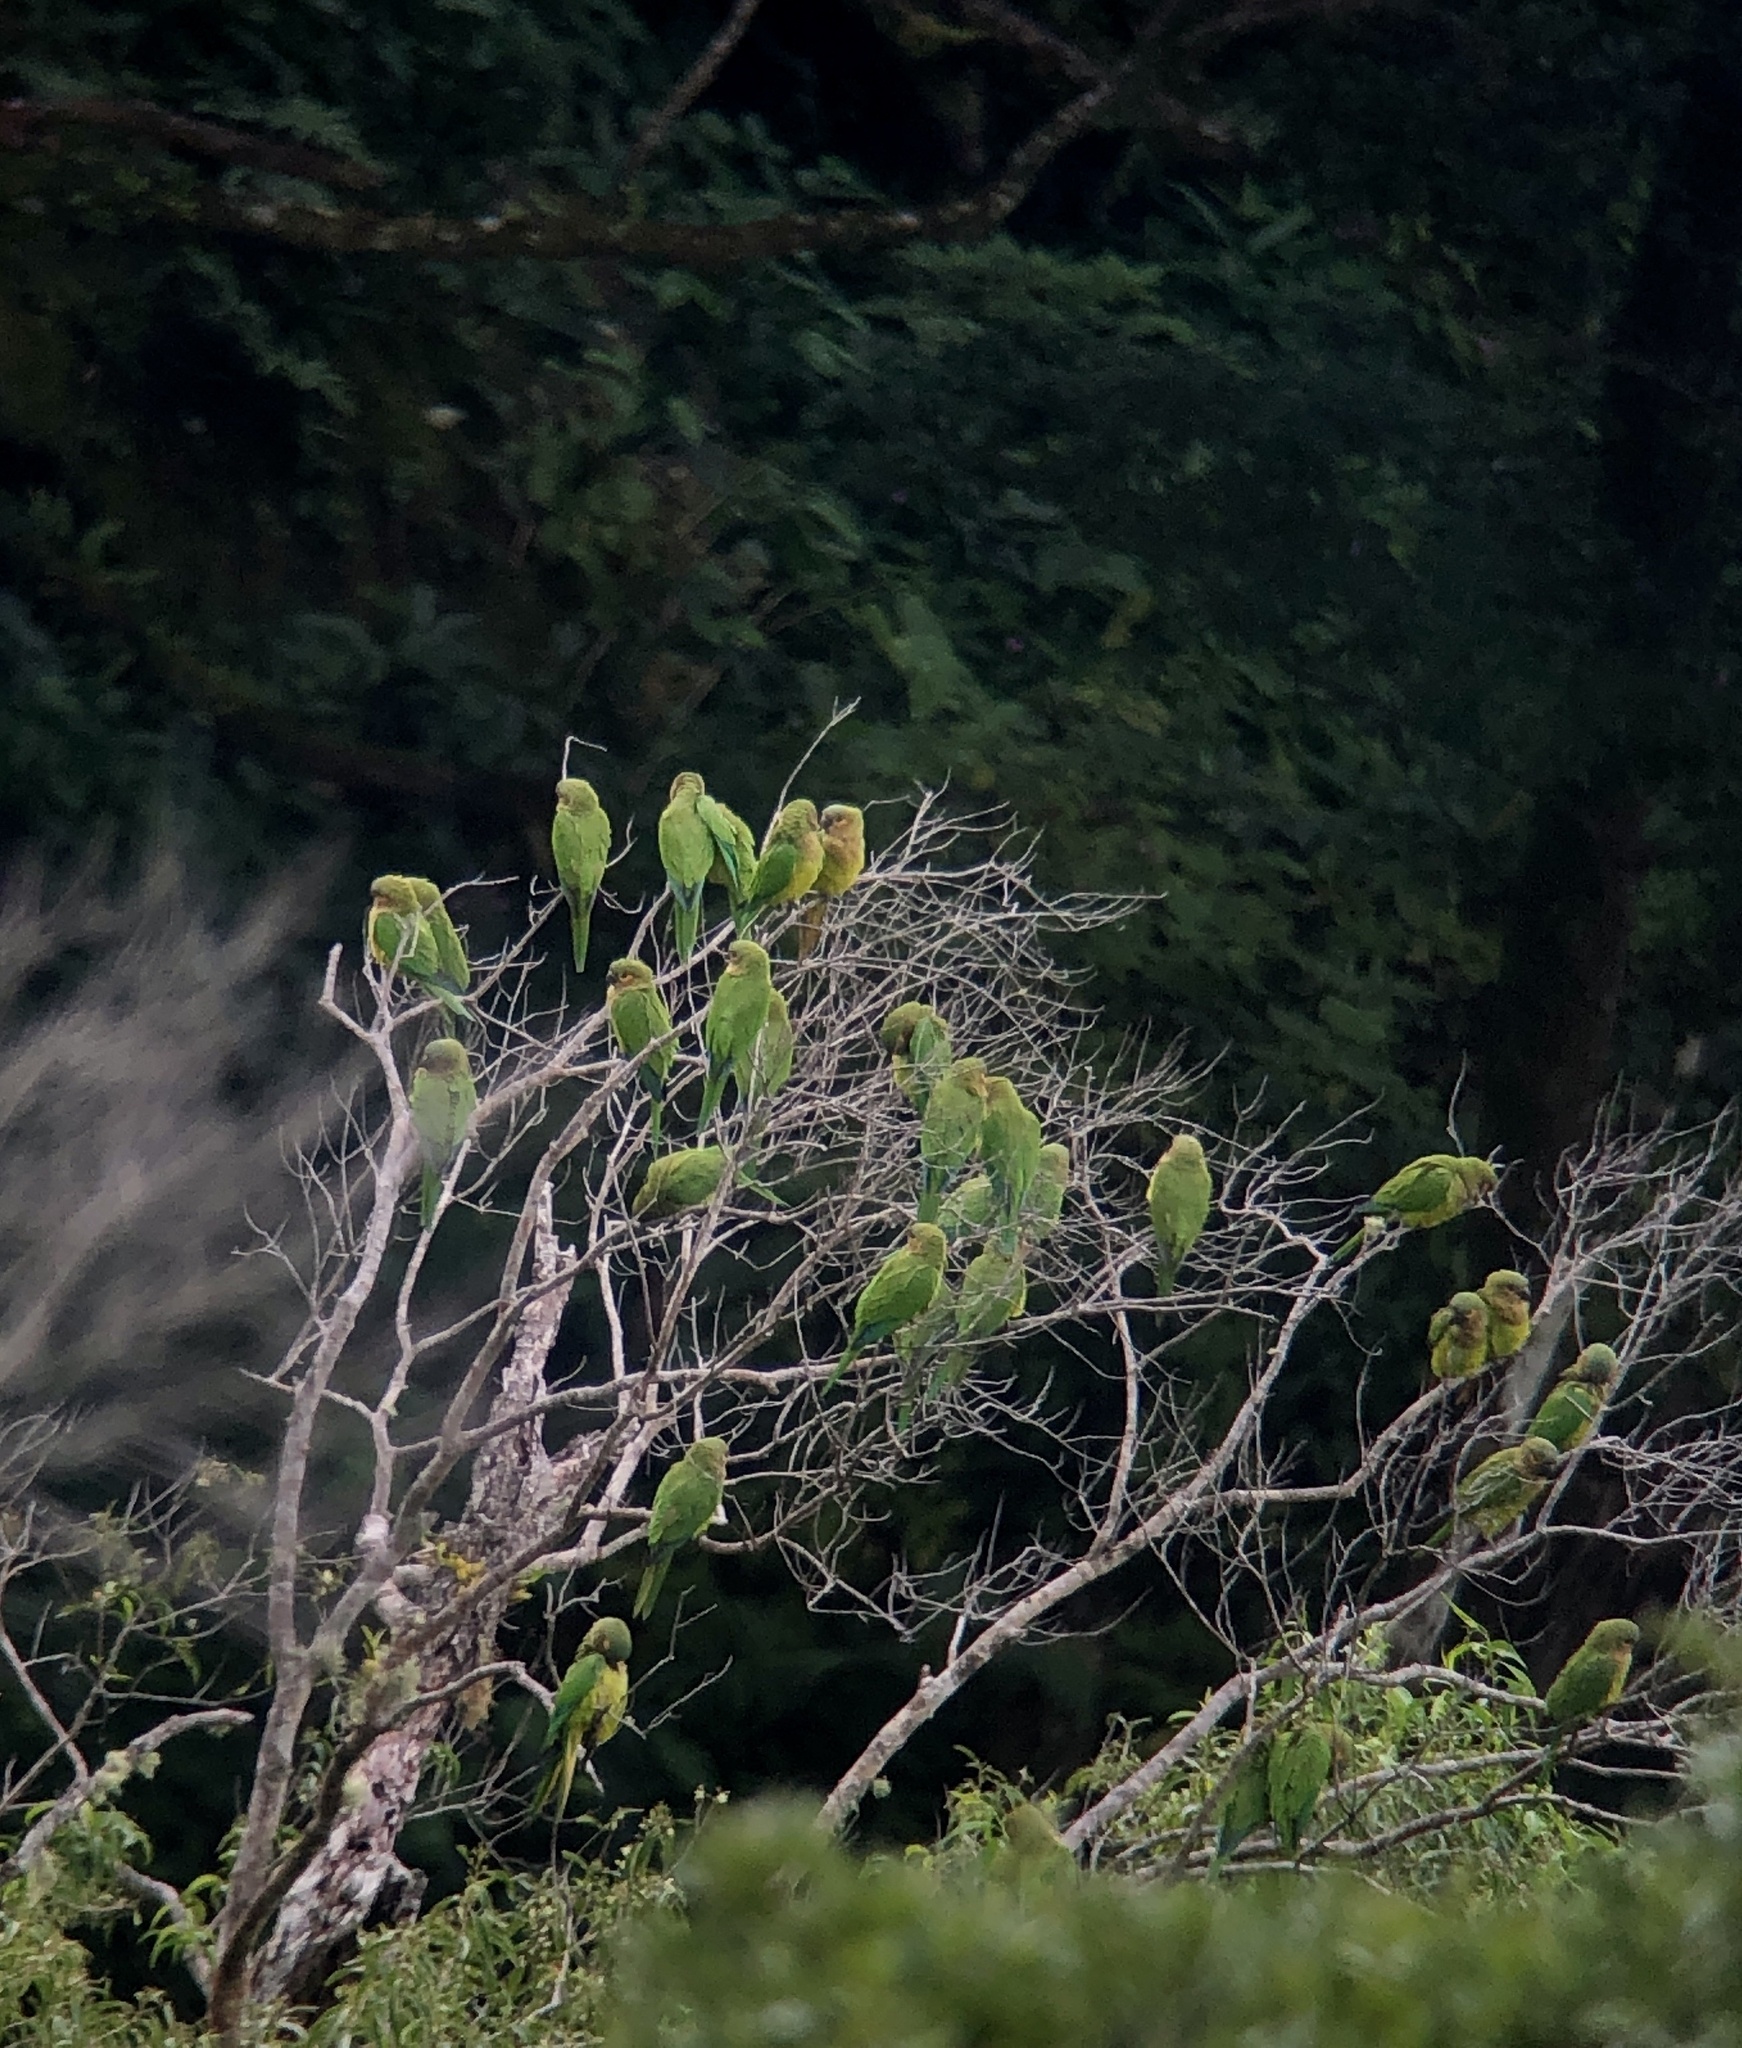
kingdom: Animalia
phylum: Chordata
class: Aves
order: Psittaciformes
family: Psittacidae
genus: Aratinga
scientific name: Aratinga pertinax
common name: Brown-throated parakeet
